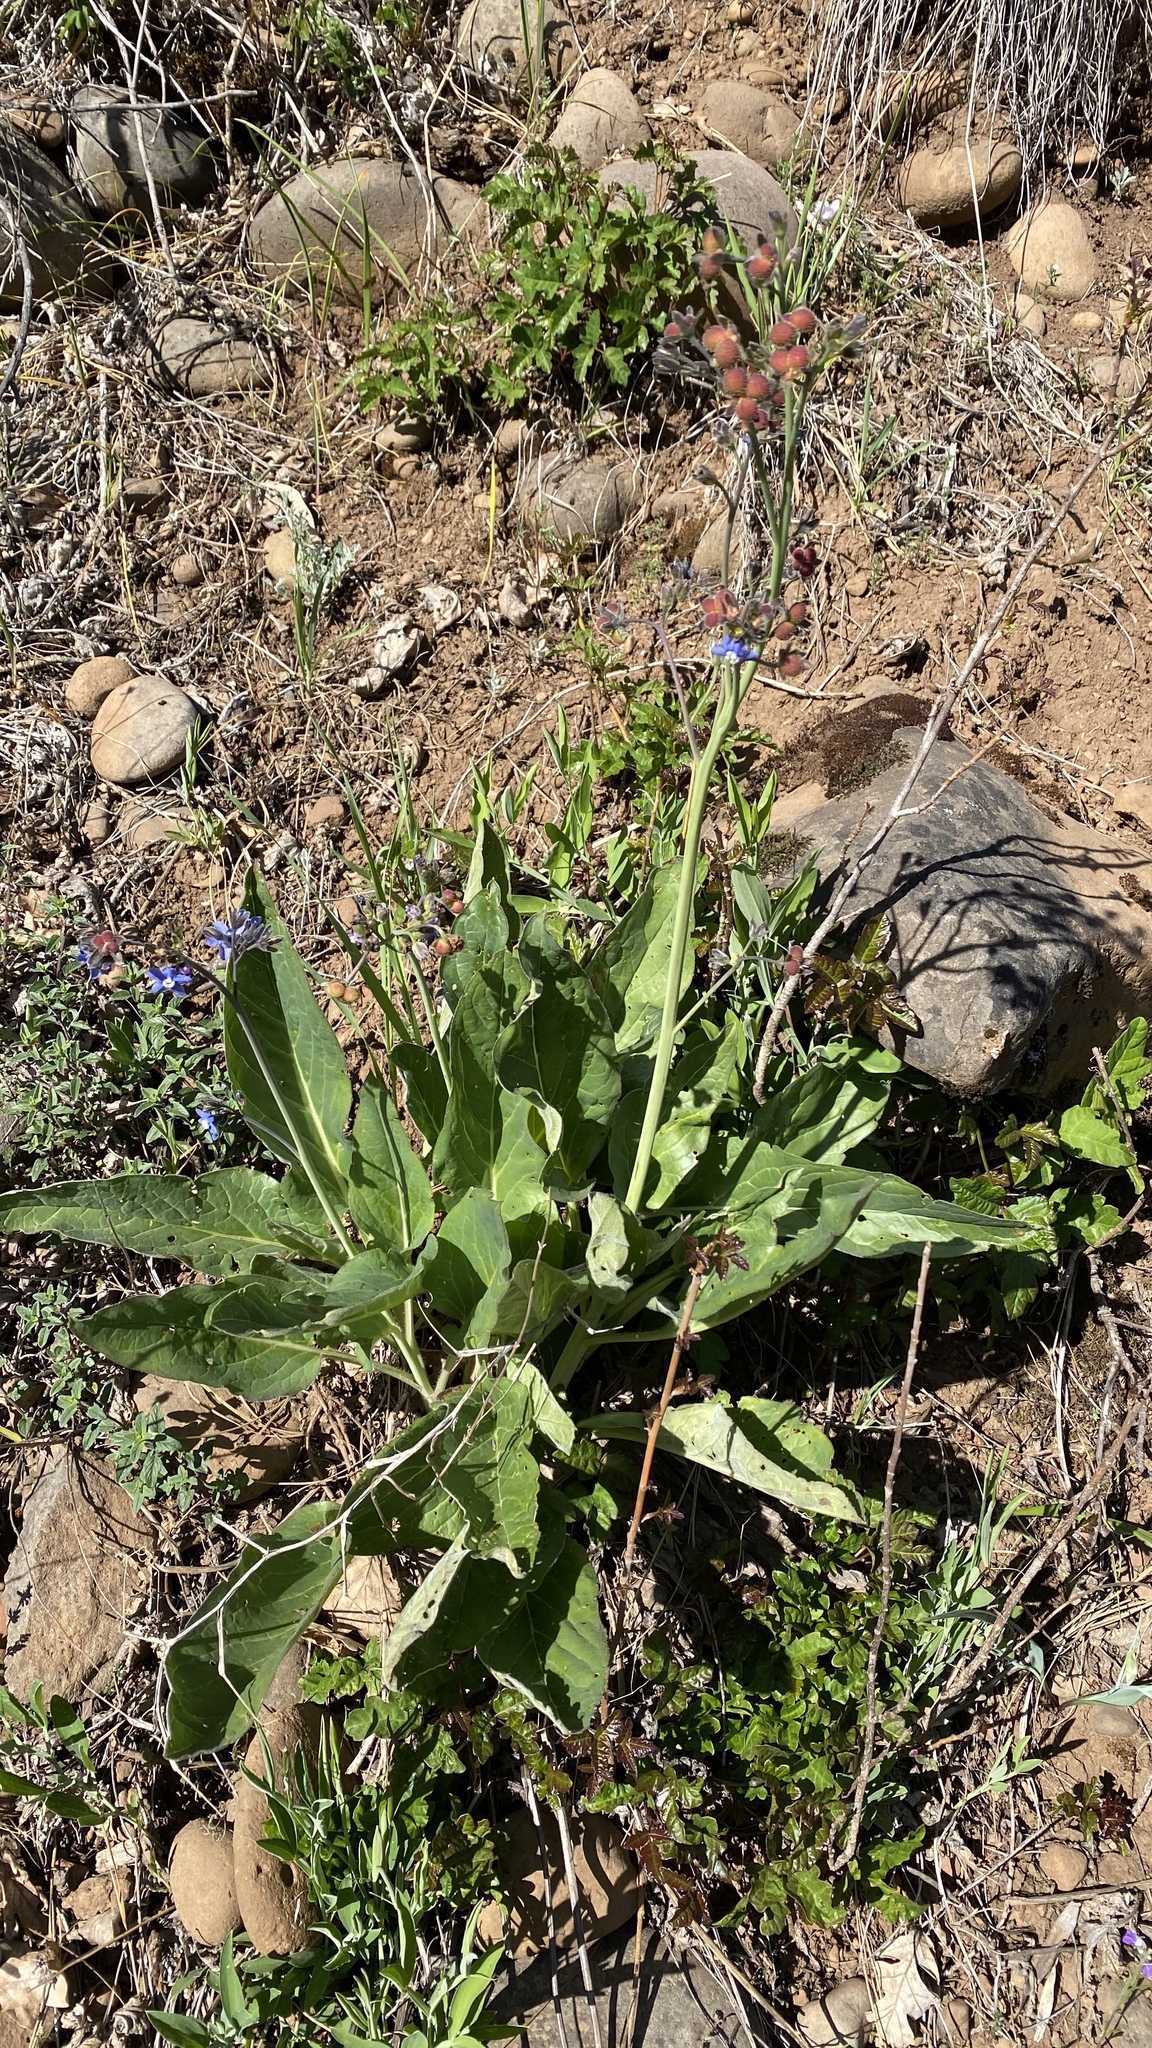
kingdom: Plantae
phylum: Tracheophyta
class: Magnoliopsida
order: Boraginales
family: Boraginaceae
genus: Adelinia
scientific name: Adelinia grande
